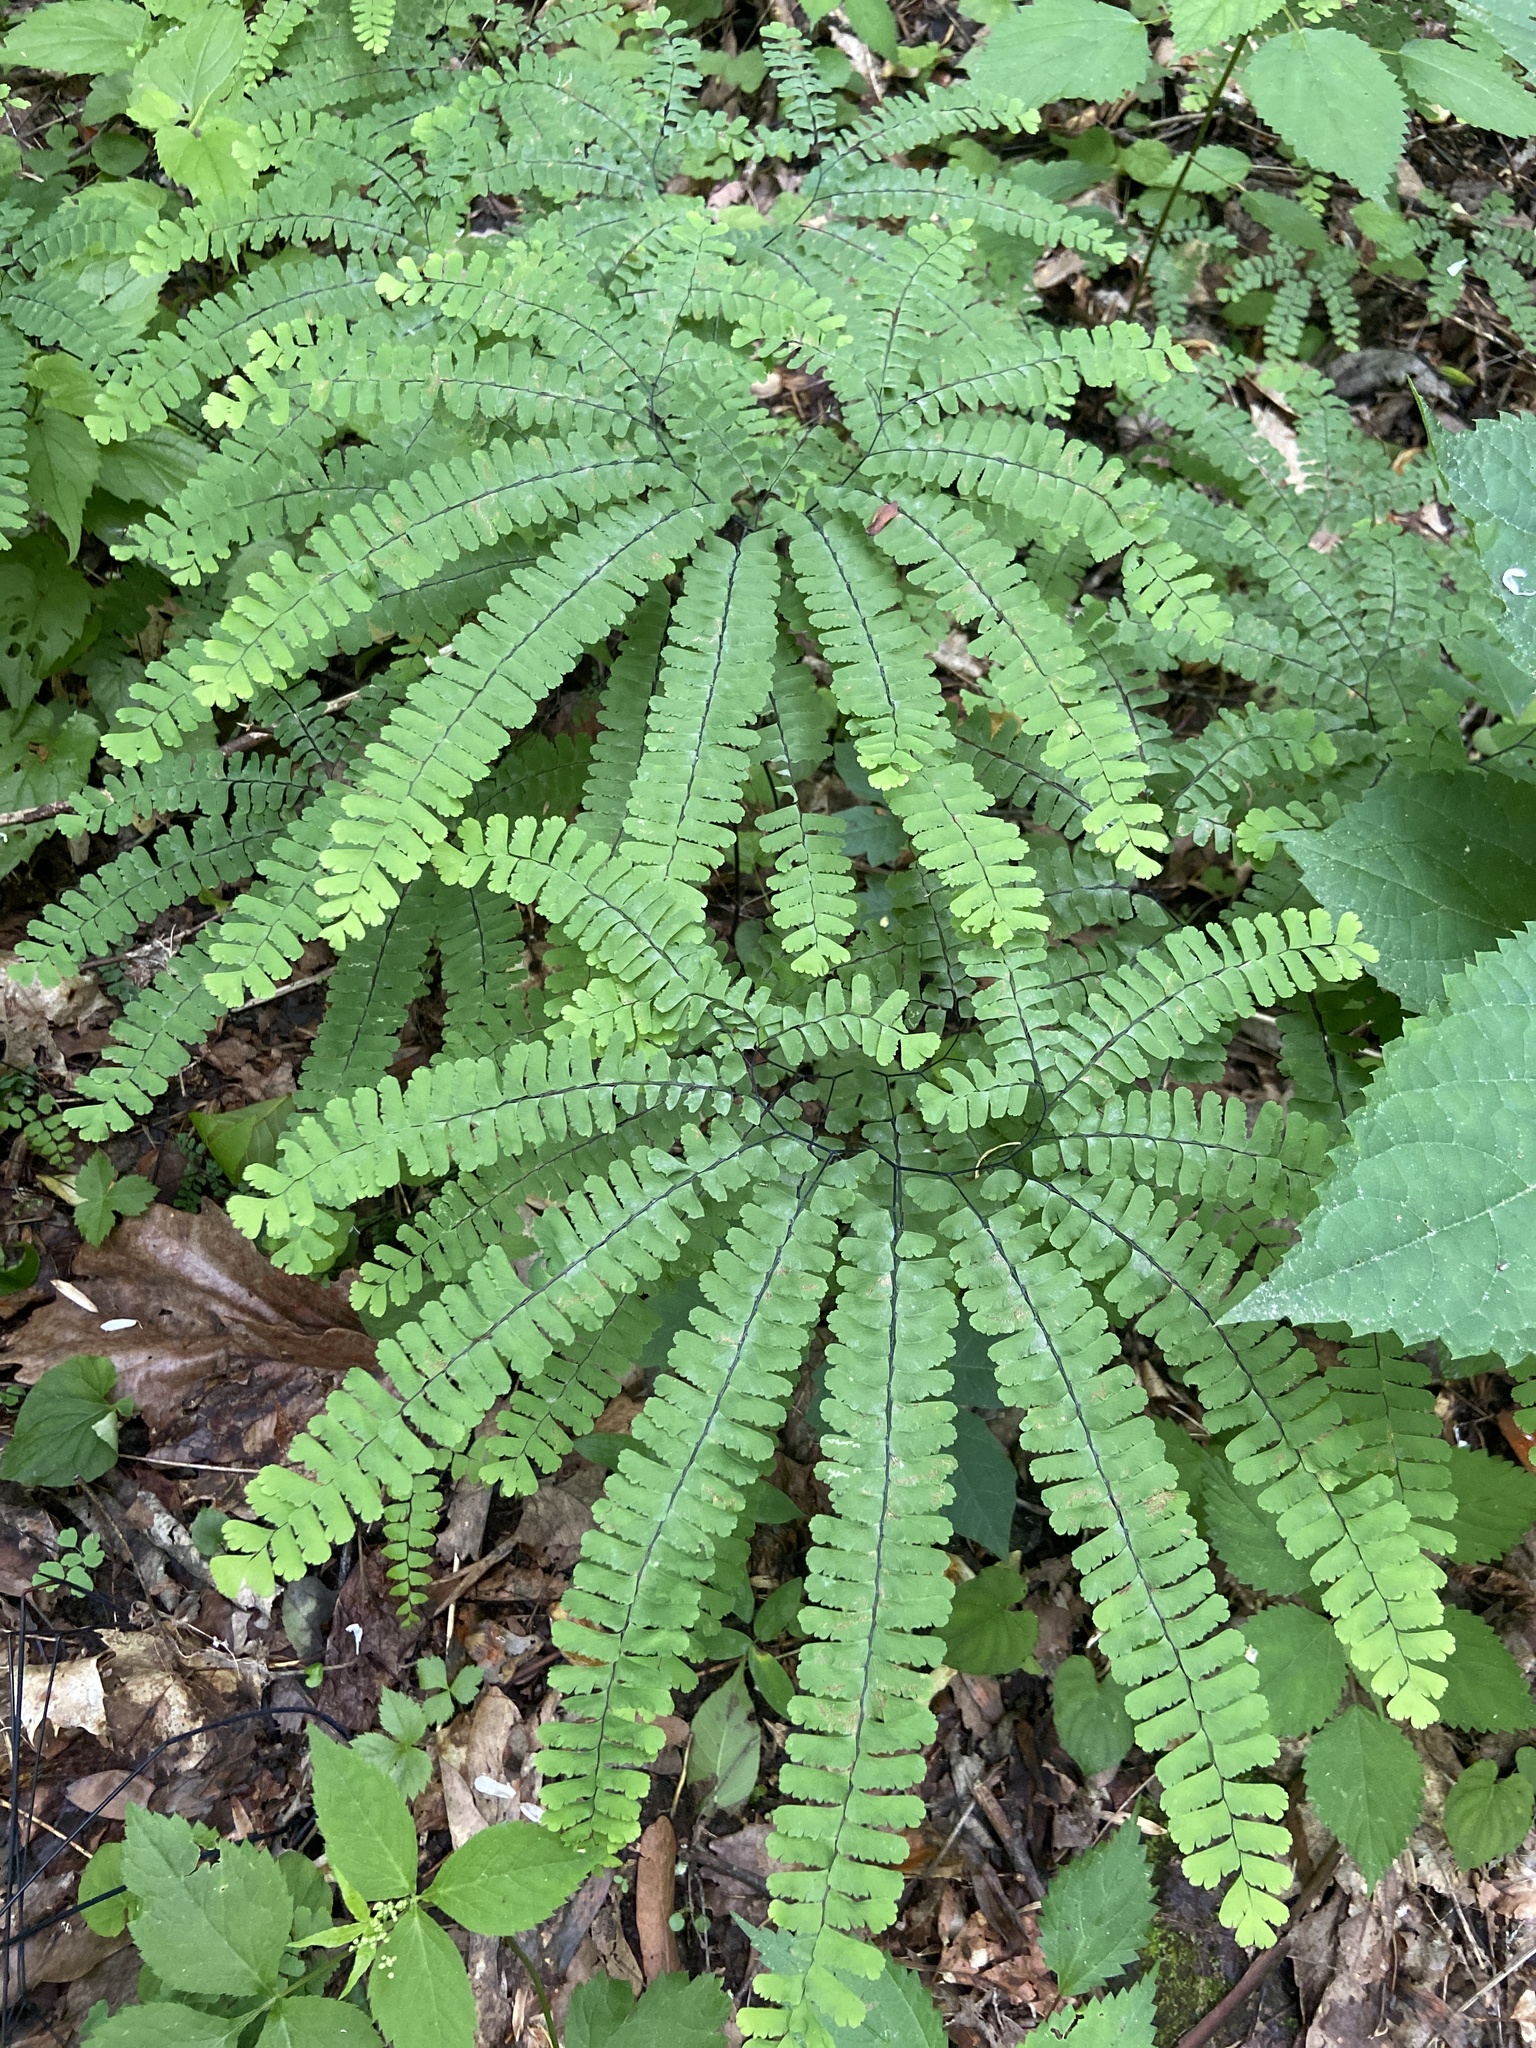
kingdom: Plantae
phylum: Tracheophyta
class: Polypodiopsida
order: Polypodiales
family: Pteridaceae
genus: Adiantum
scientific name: Adiantum pedatum
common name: Five-finger fern
